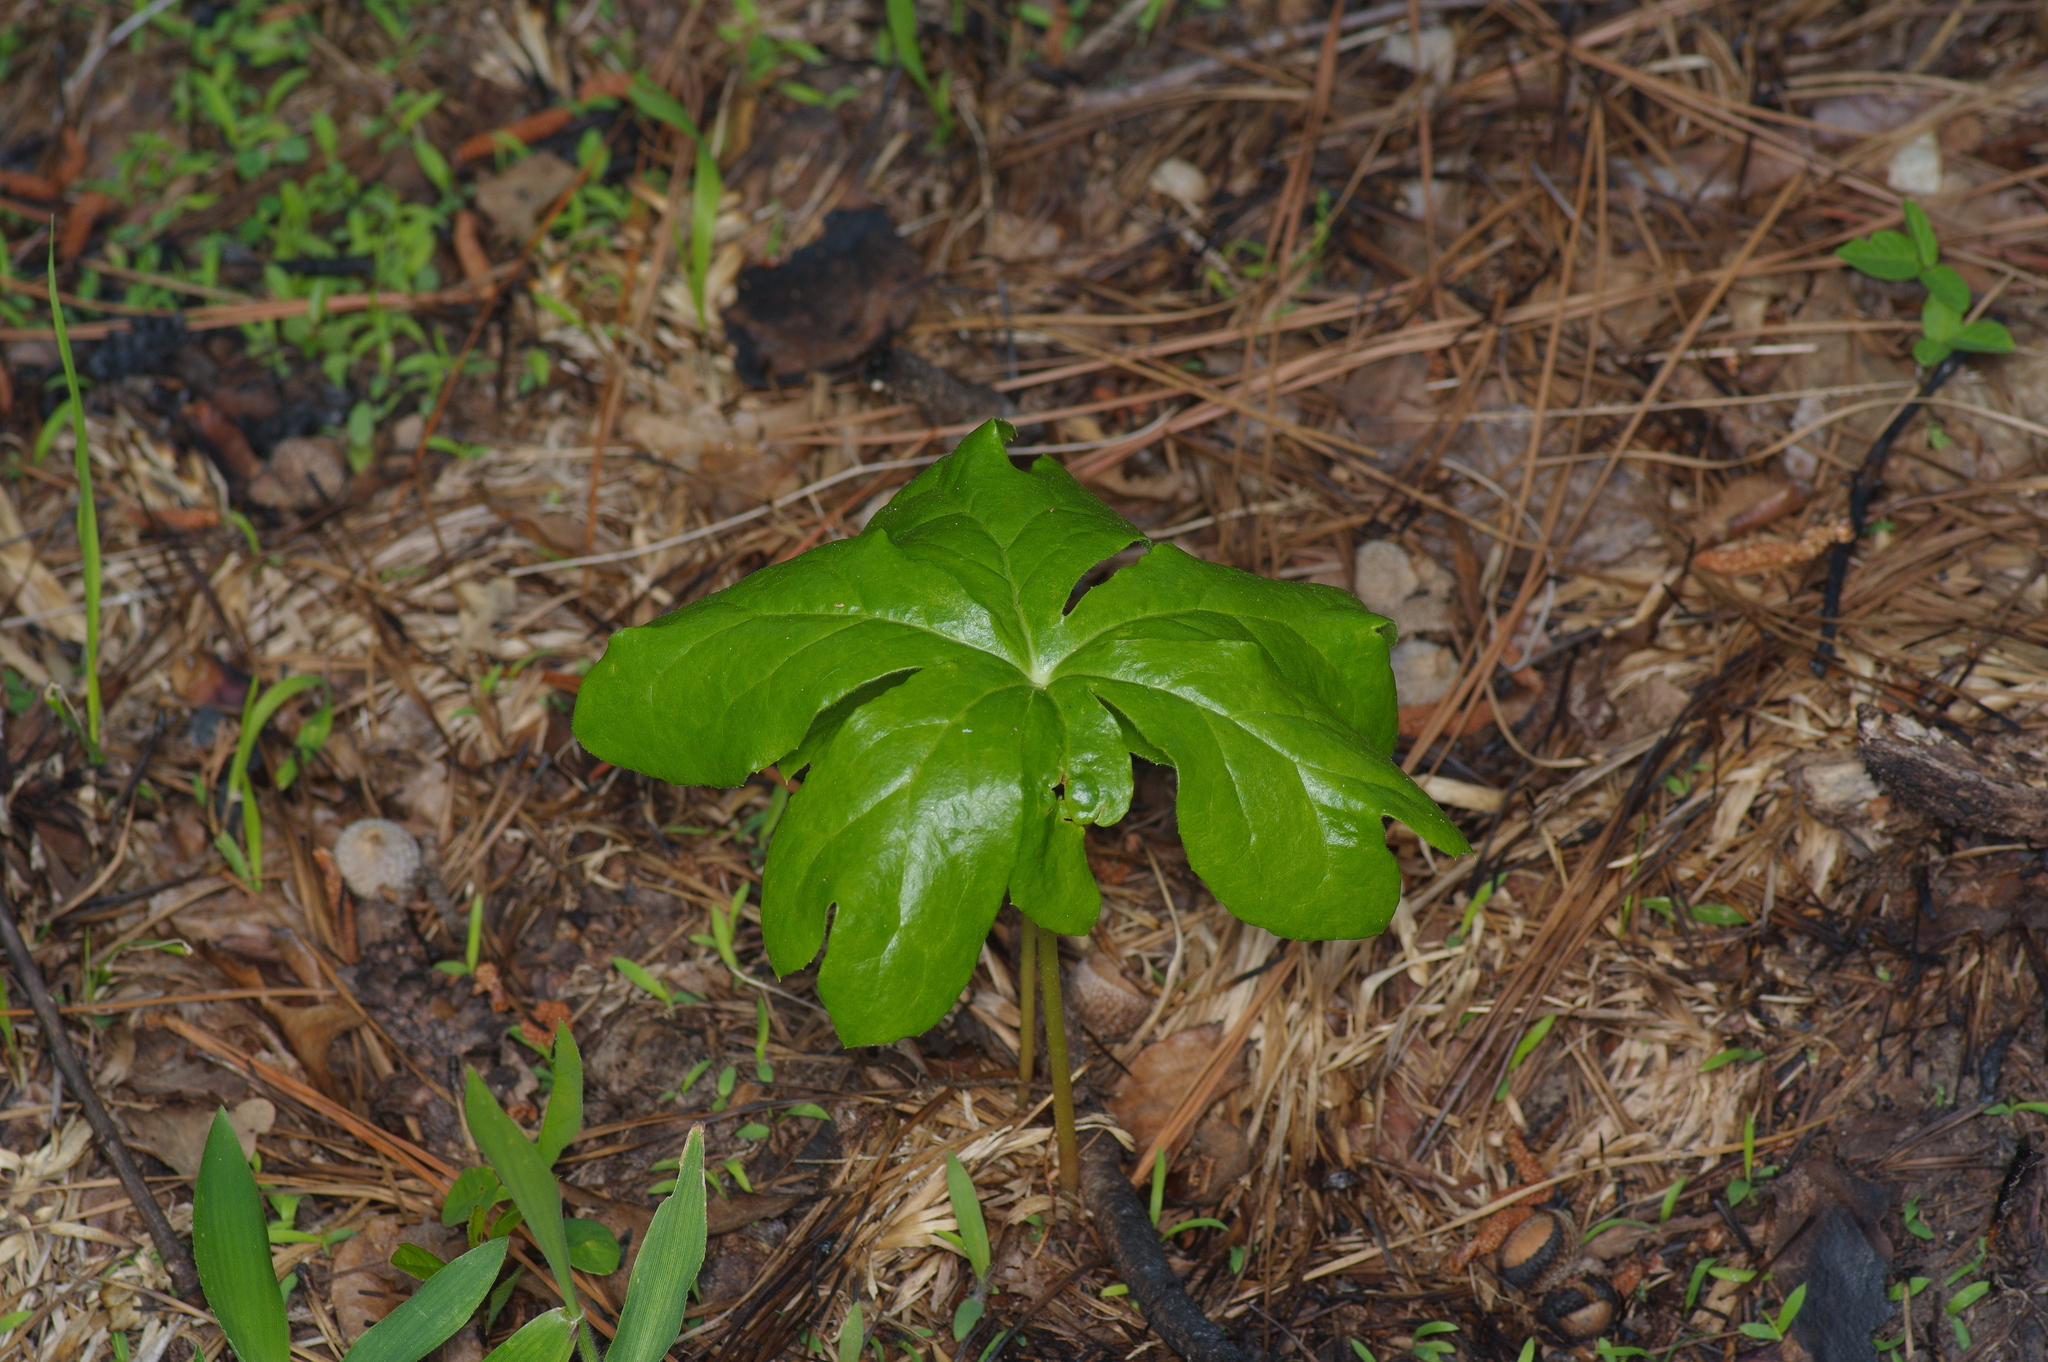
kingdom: Plantae
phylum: Tracheophyta
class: Magnoliopsida
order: Ranunculales
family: Berberidaceae
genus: Podophyllum
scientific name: Podophyllum peltatum
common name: Wild mandrake
